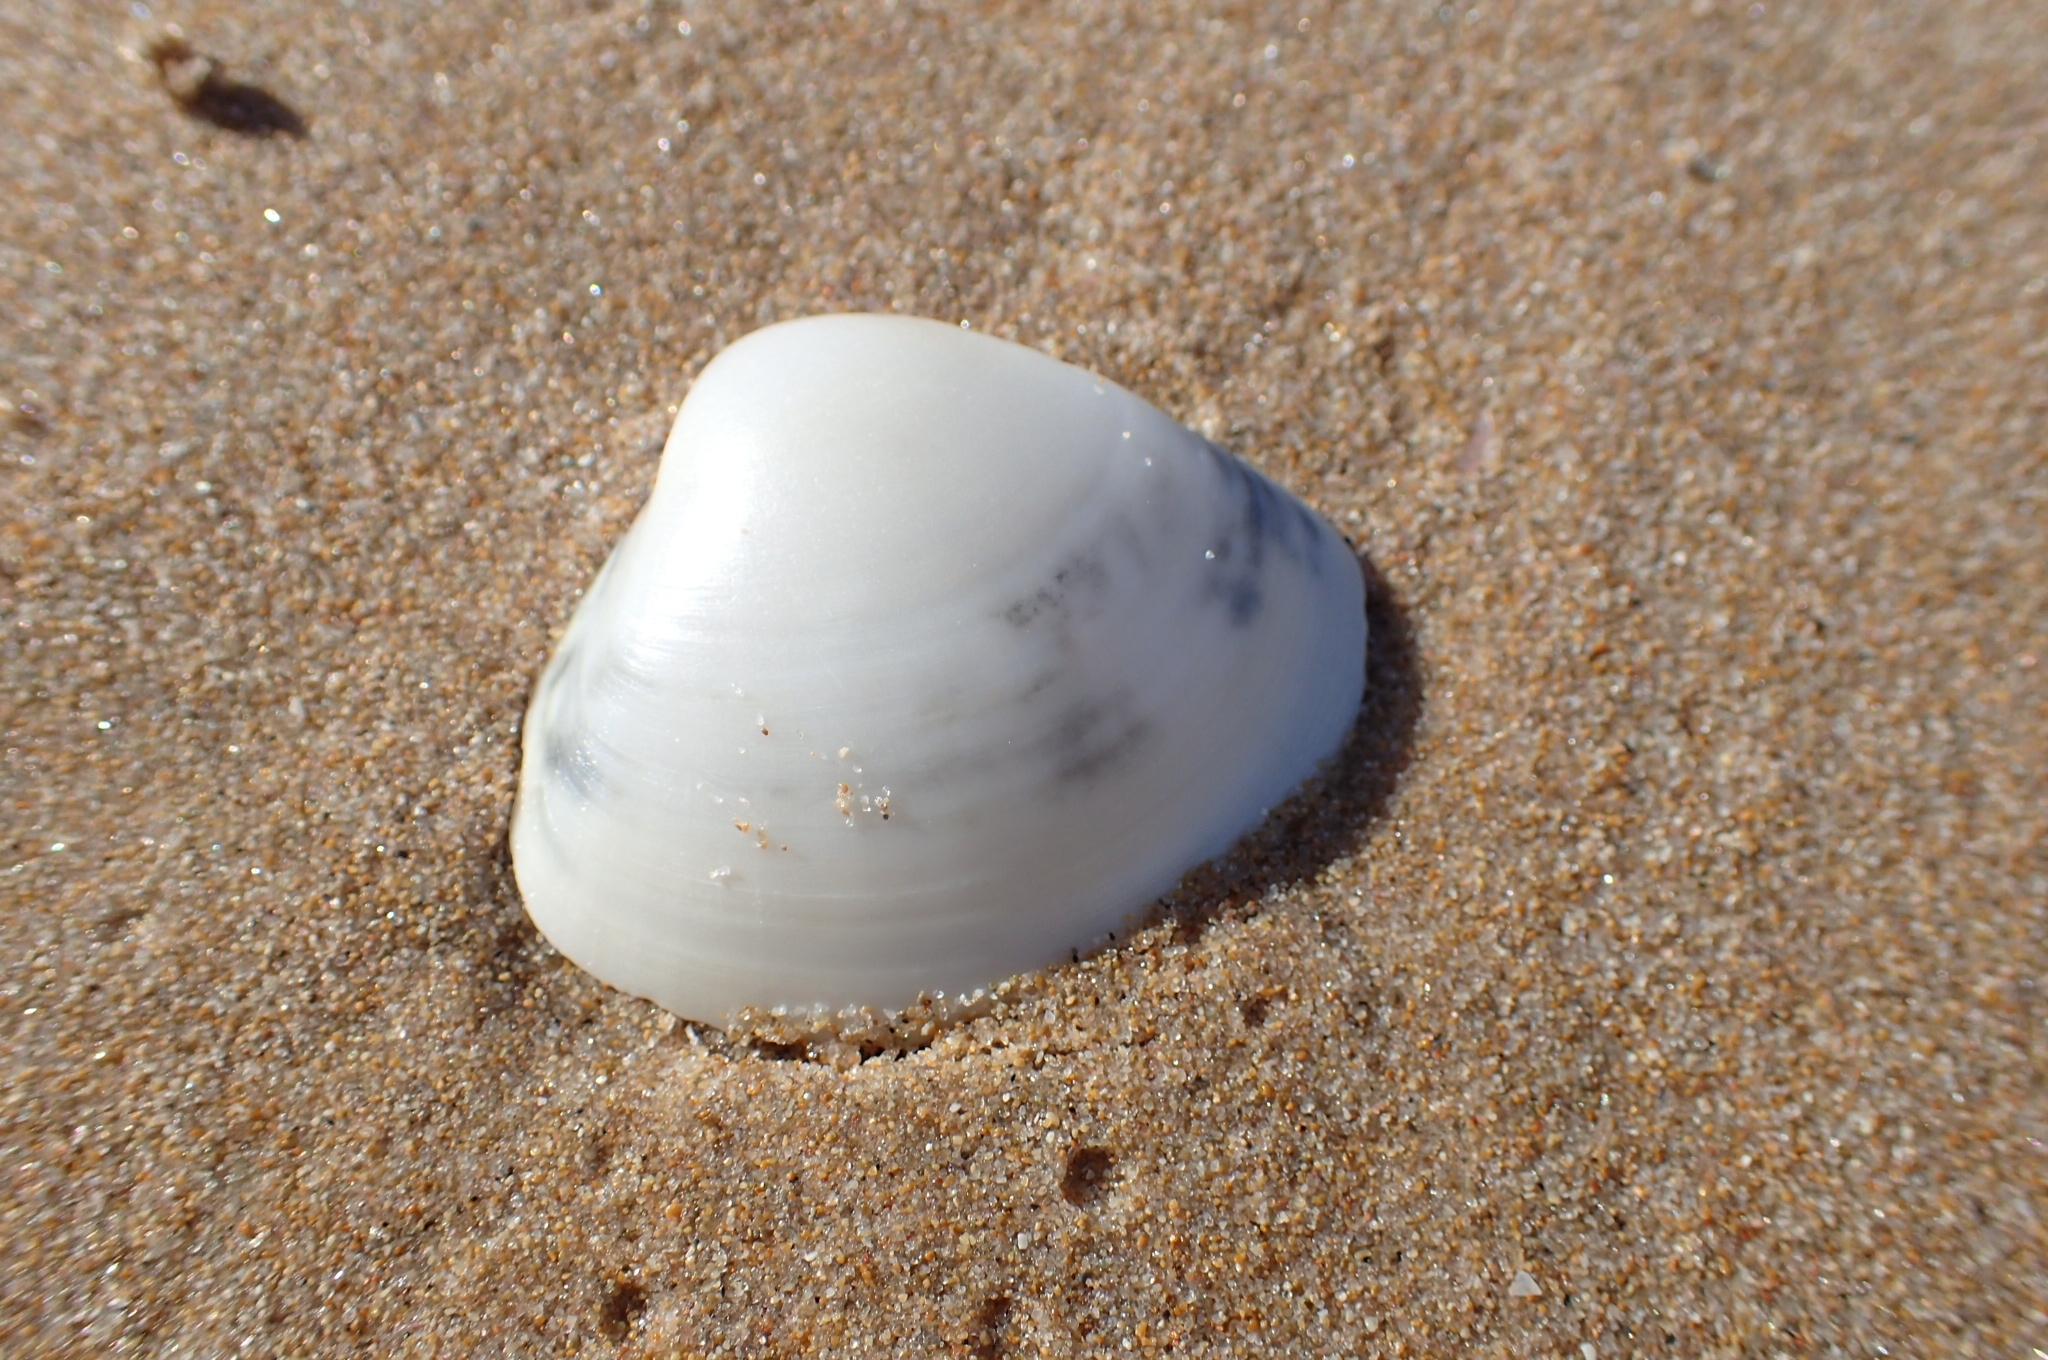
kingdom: Animalia
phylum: Mollusca
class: Bivalvia
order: Venerida
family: Mactridae
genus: Mactra
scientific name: Mactra stultorum
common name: Rayed trough shell
